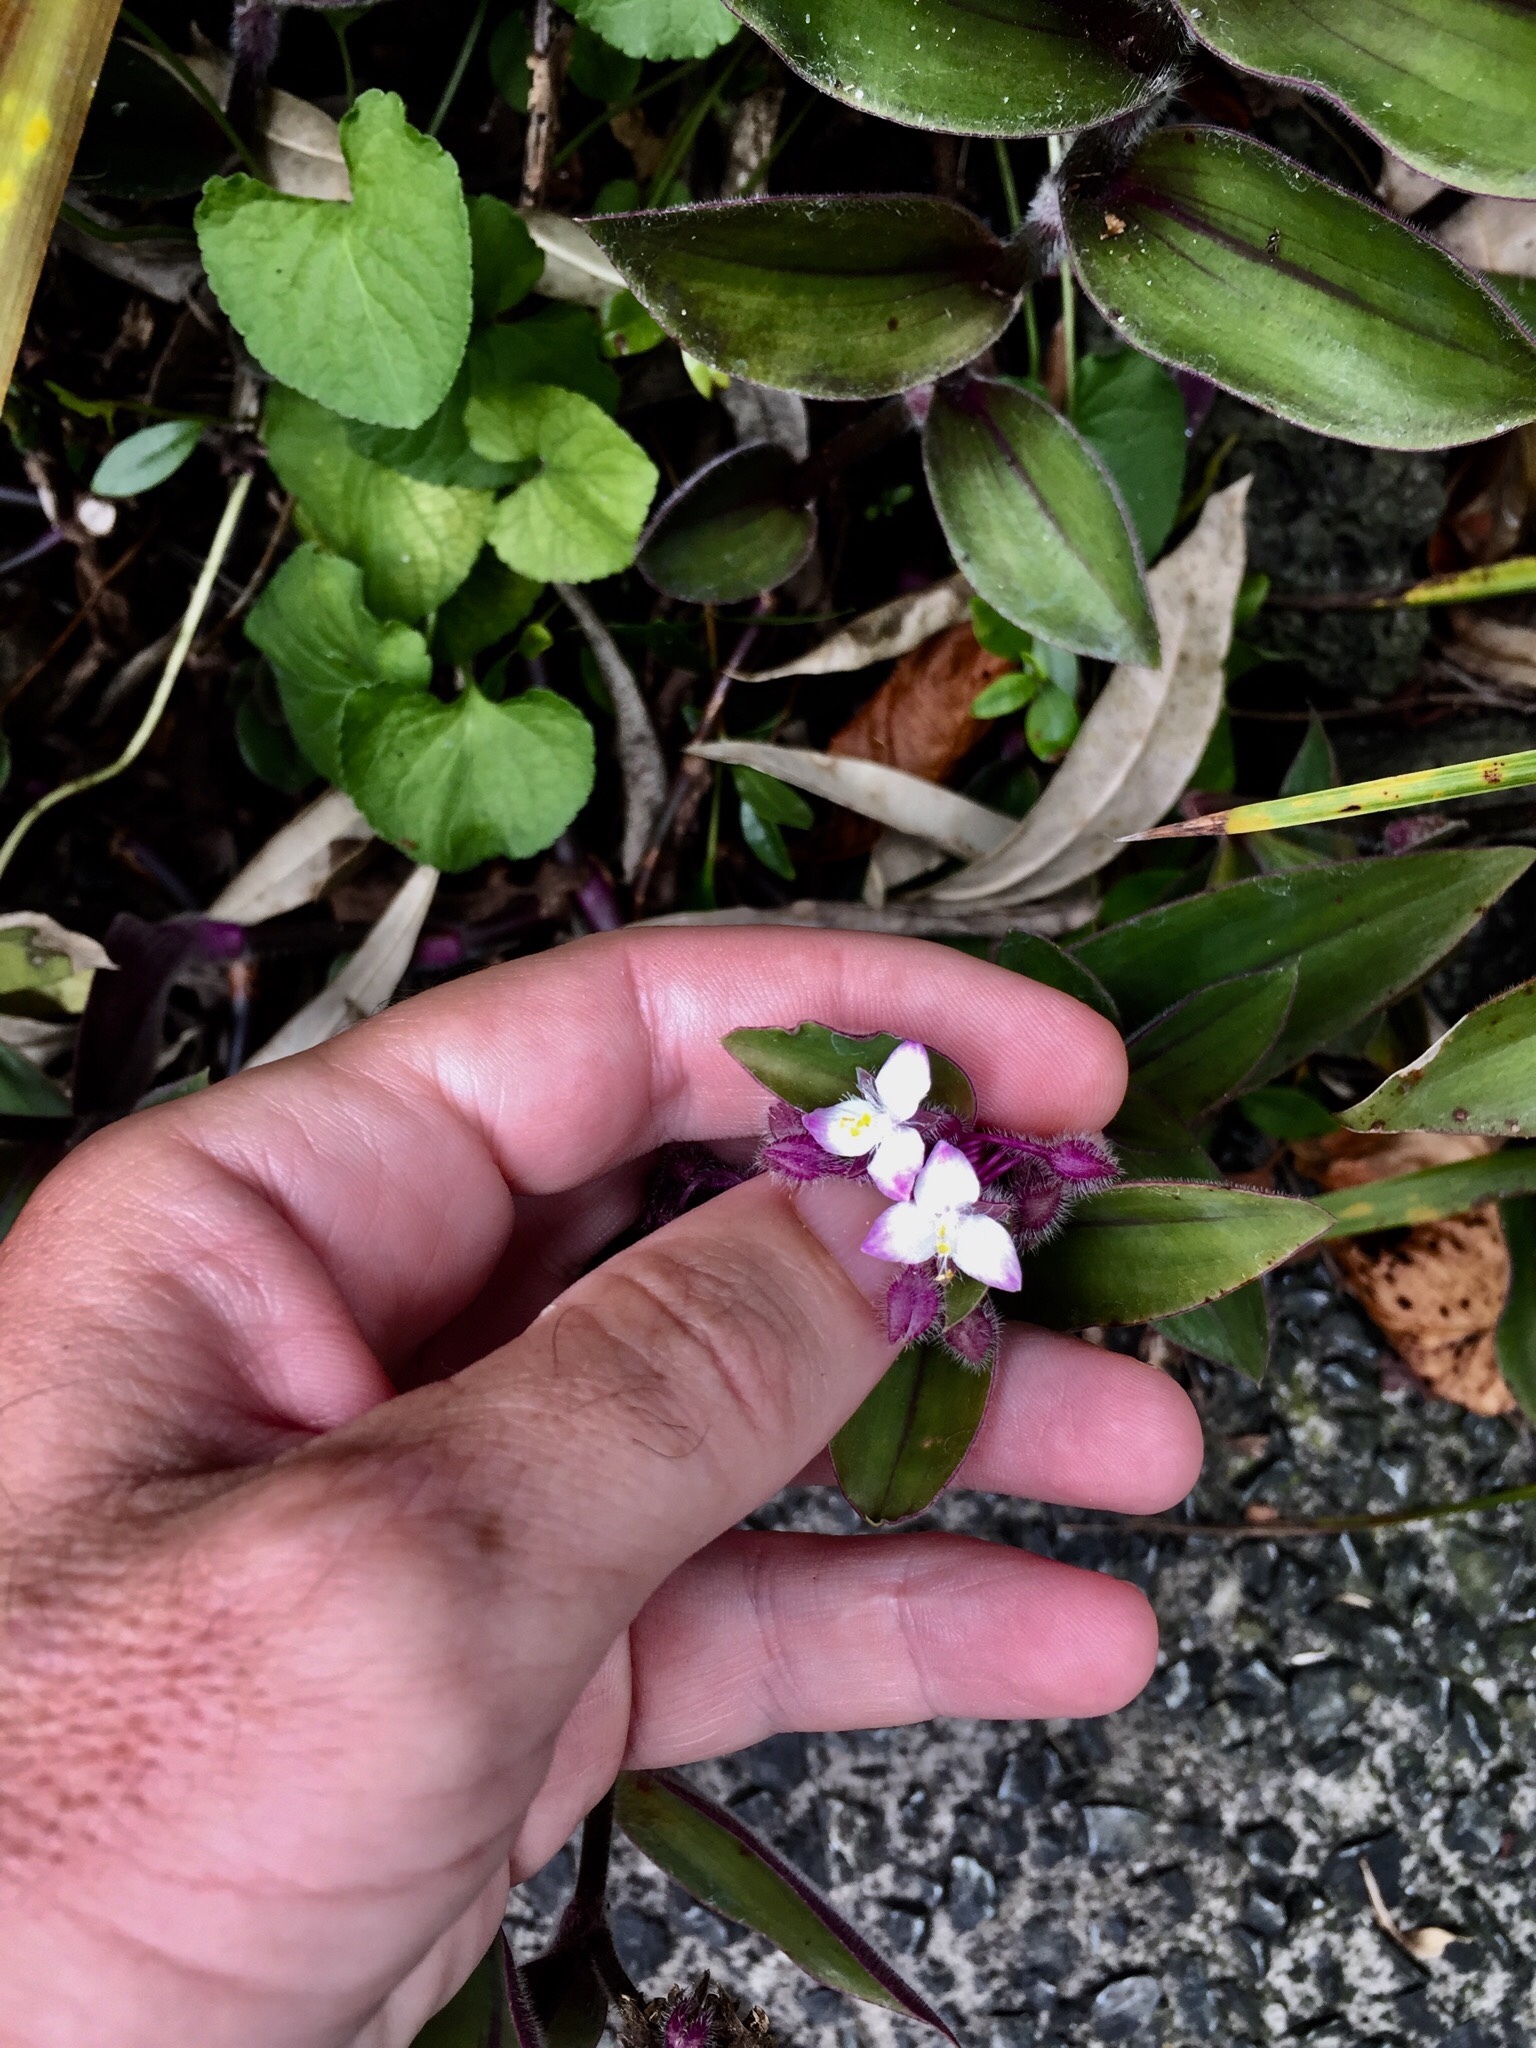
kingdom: Plantae
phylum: Tracheophyta
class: Liliopsida
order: Commelinales
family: Commelinaceae
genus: Tradescantia
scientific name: Tradescantia cerinthoides
